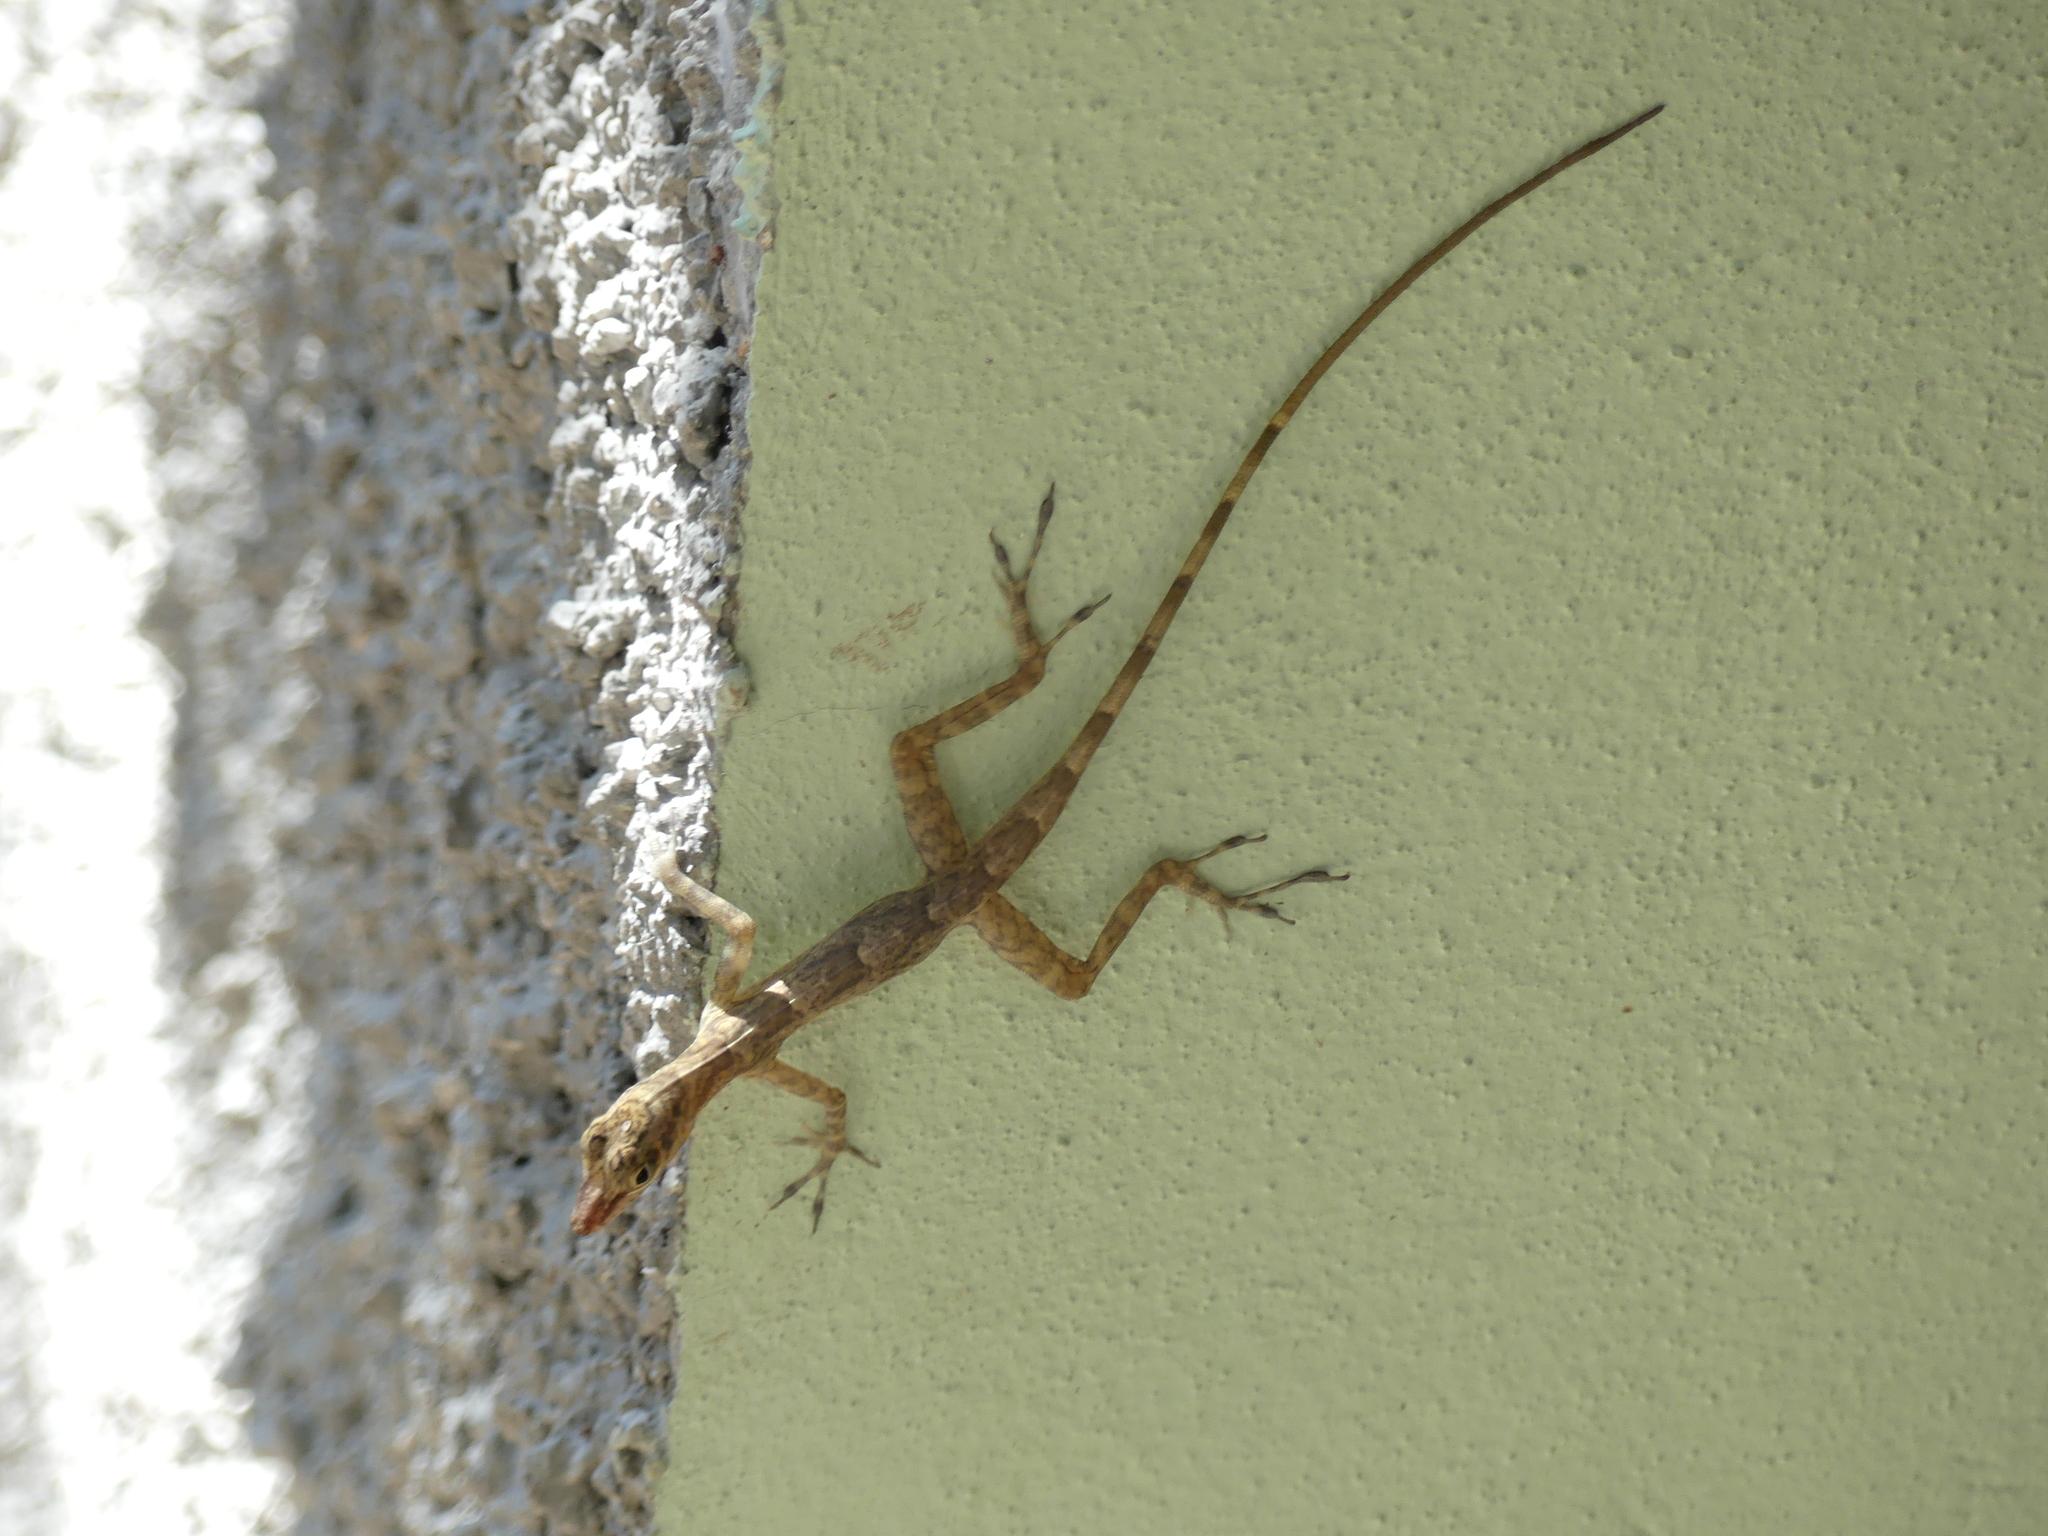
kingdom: Animalia
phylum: Chordata
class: Squamata
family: Dactyloidae
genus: Anolis
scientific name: Anolis argenteolus
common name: Guantanamo anole
